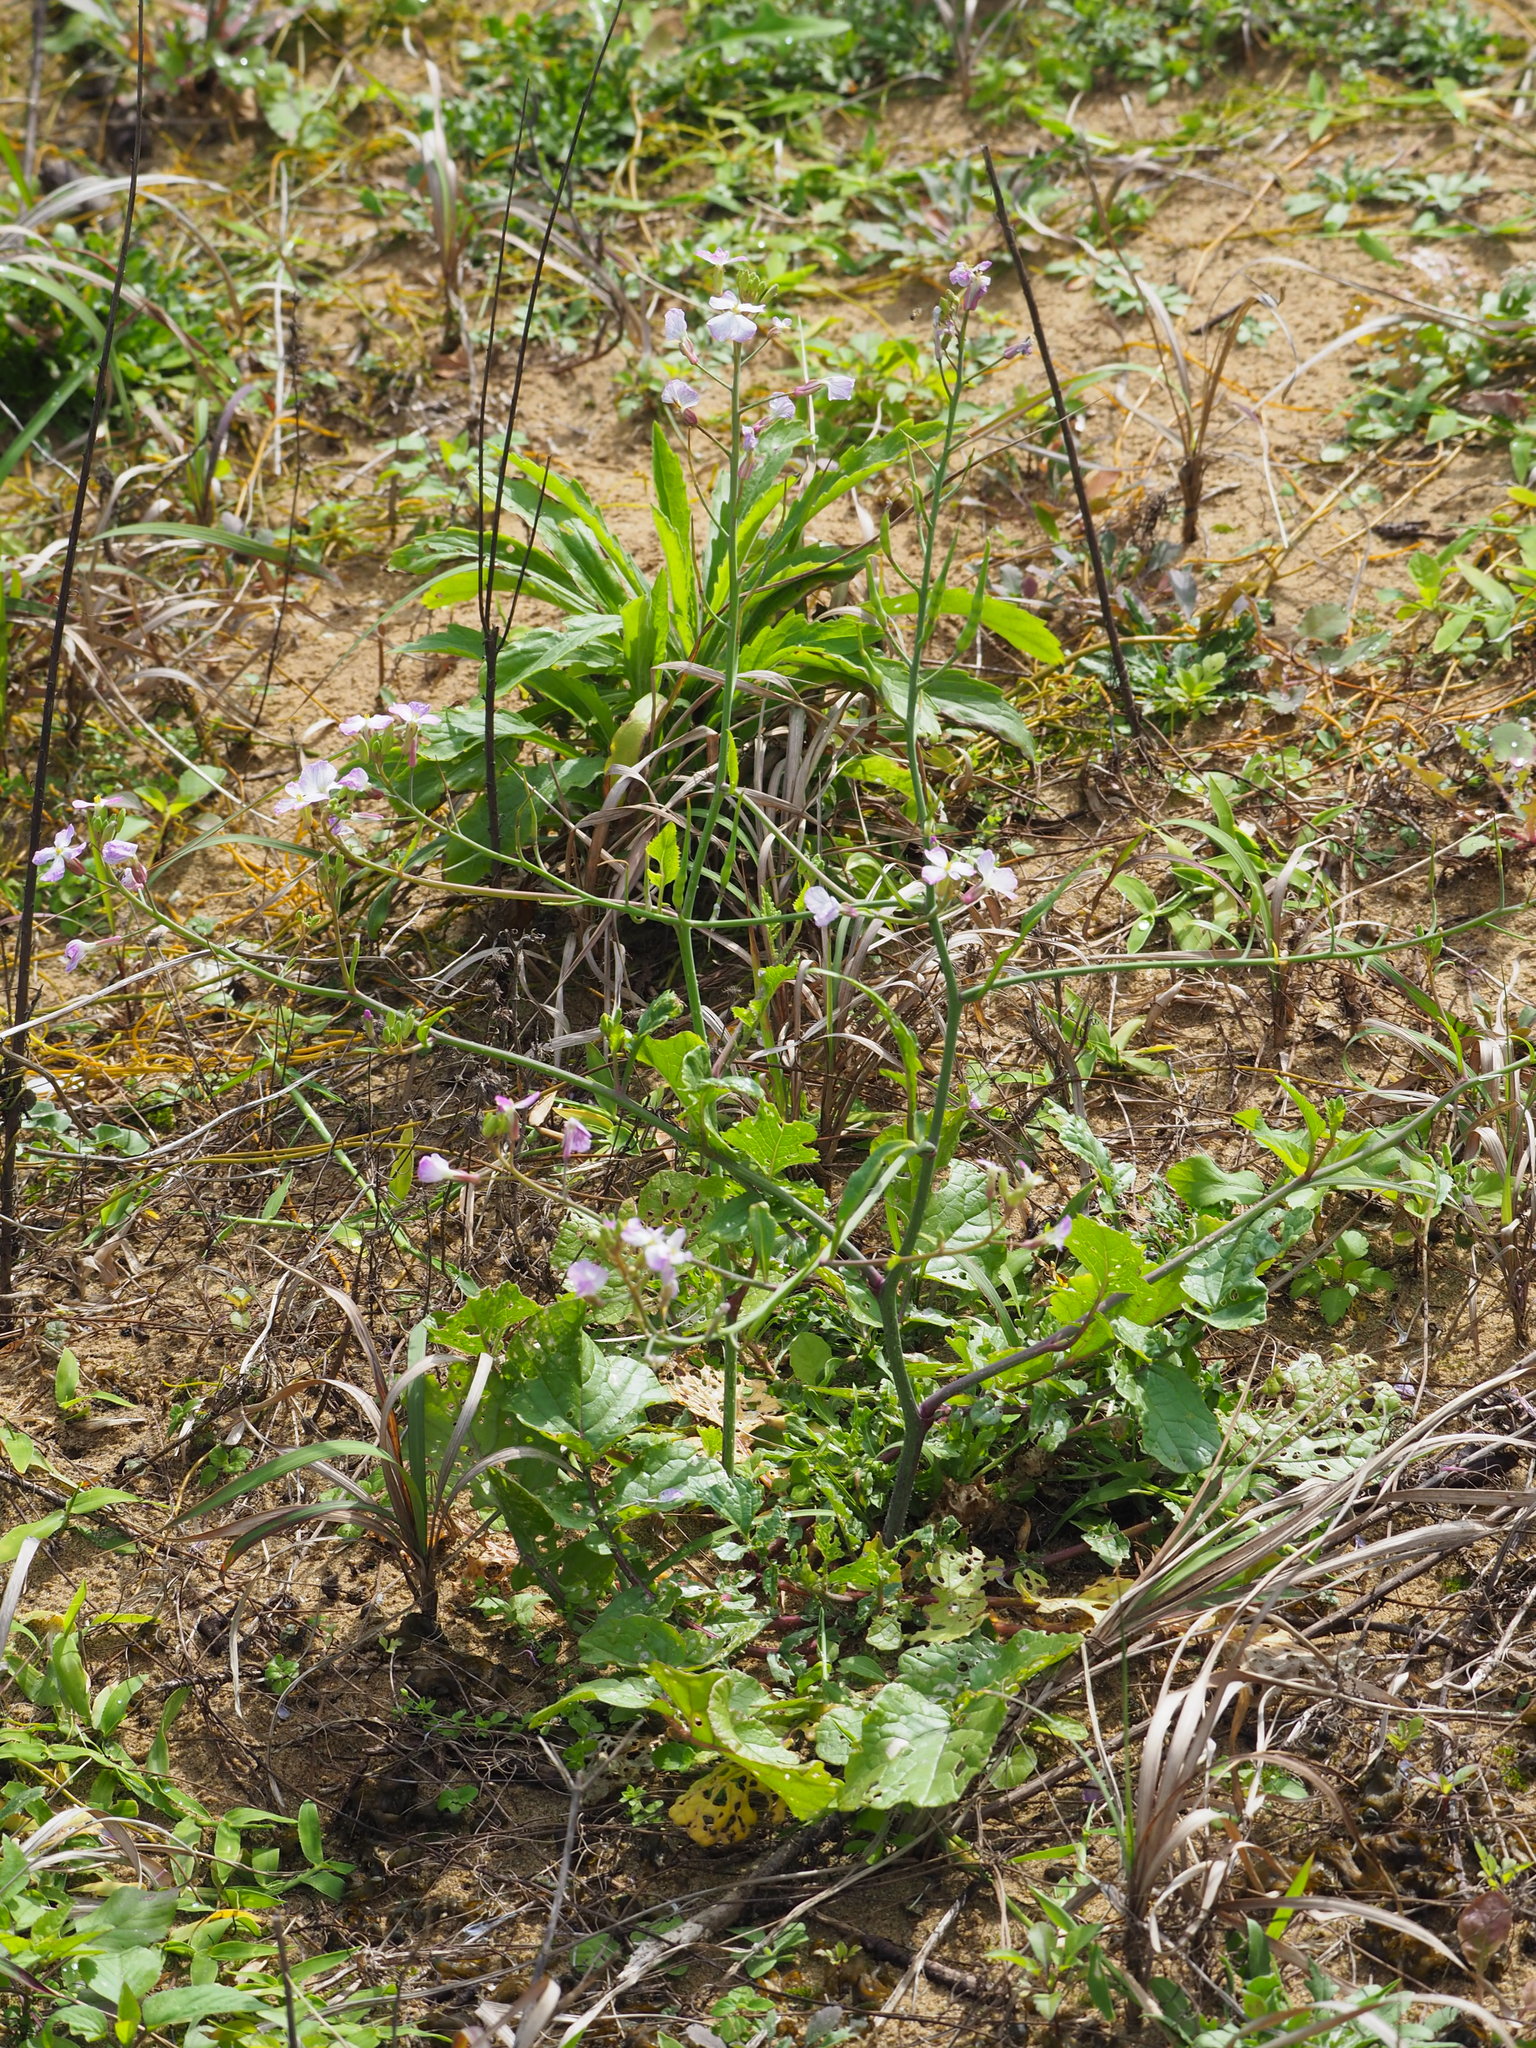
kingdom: Plantae
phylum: Tracheophyta
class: Magnoliopsida
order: Brassicales
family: Brassicaceae
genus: Raphanus
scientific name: Raphanus sativus
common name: Cultivated radish
